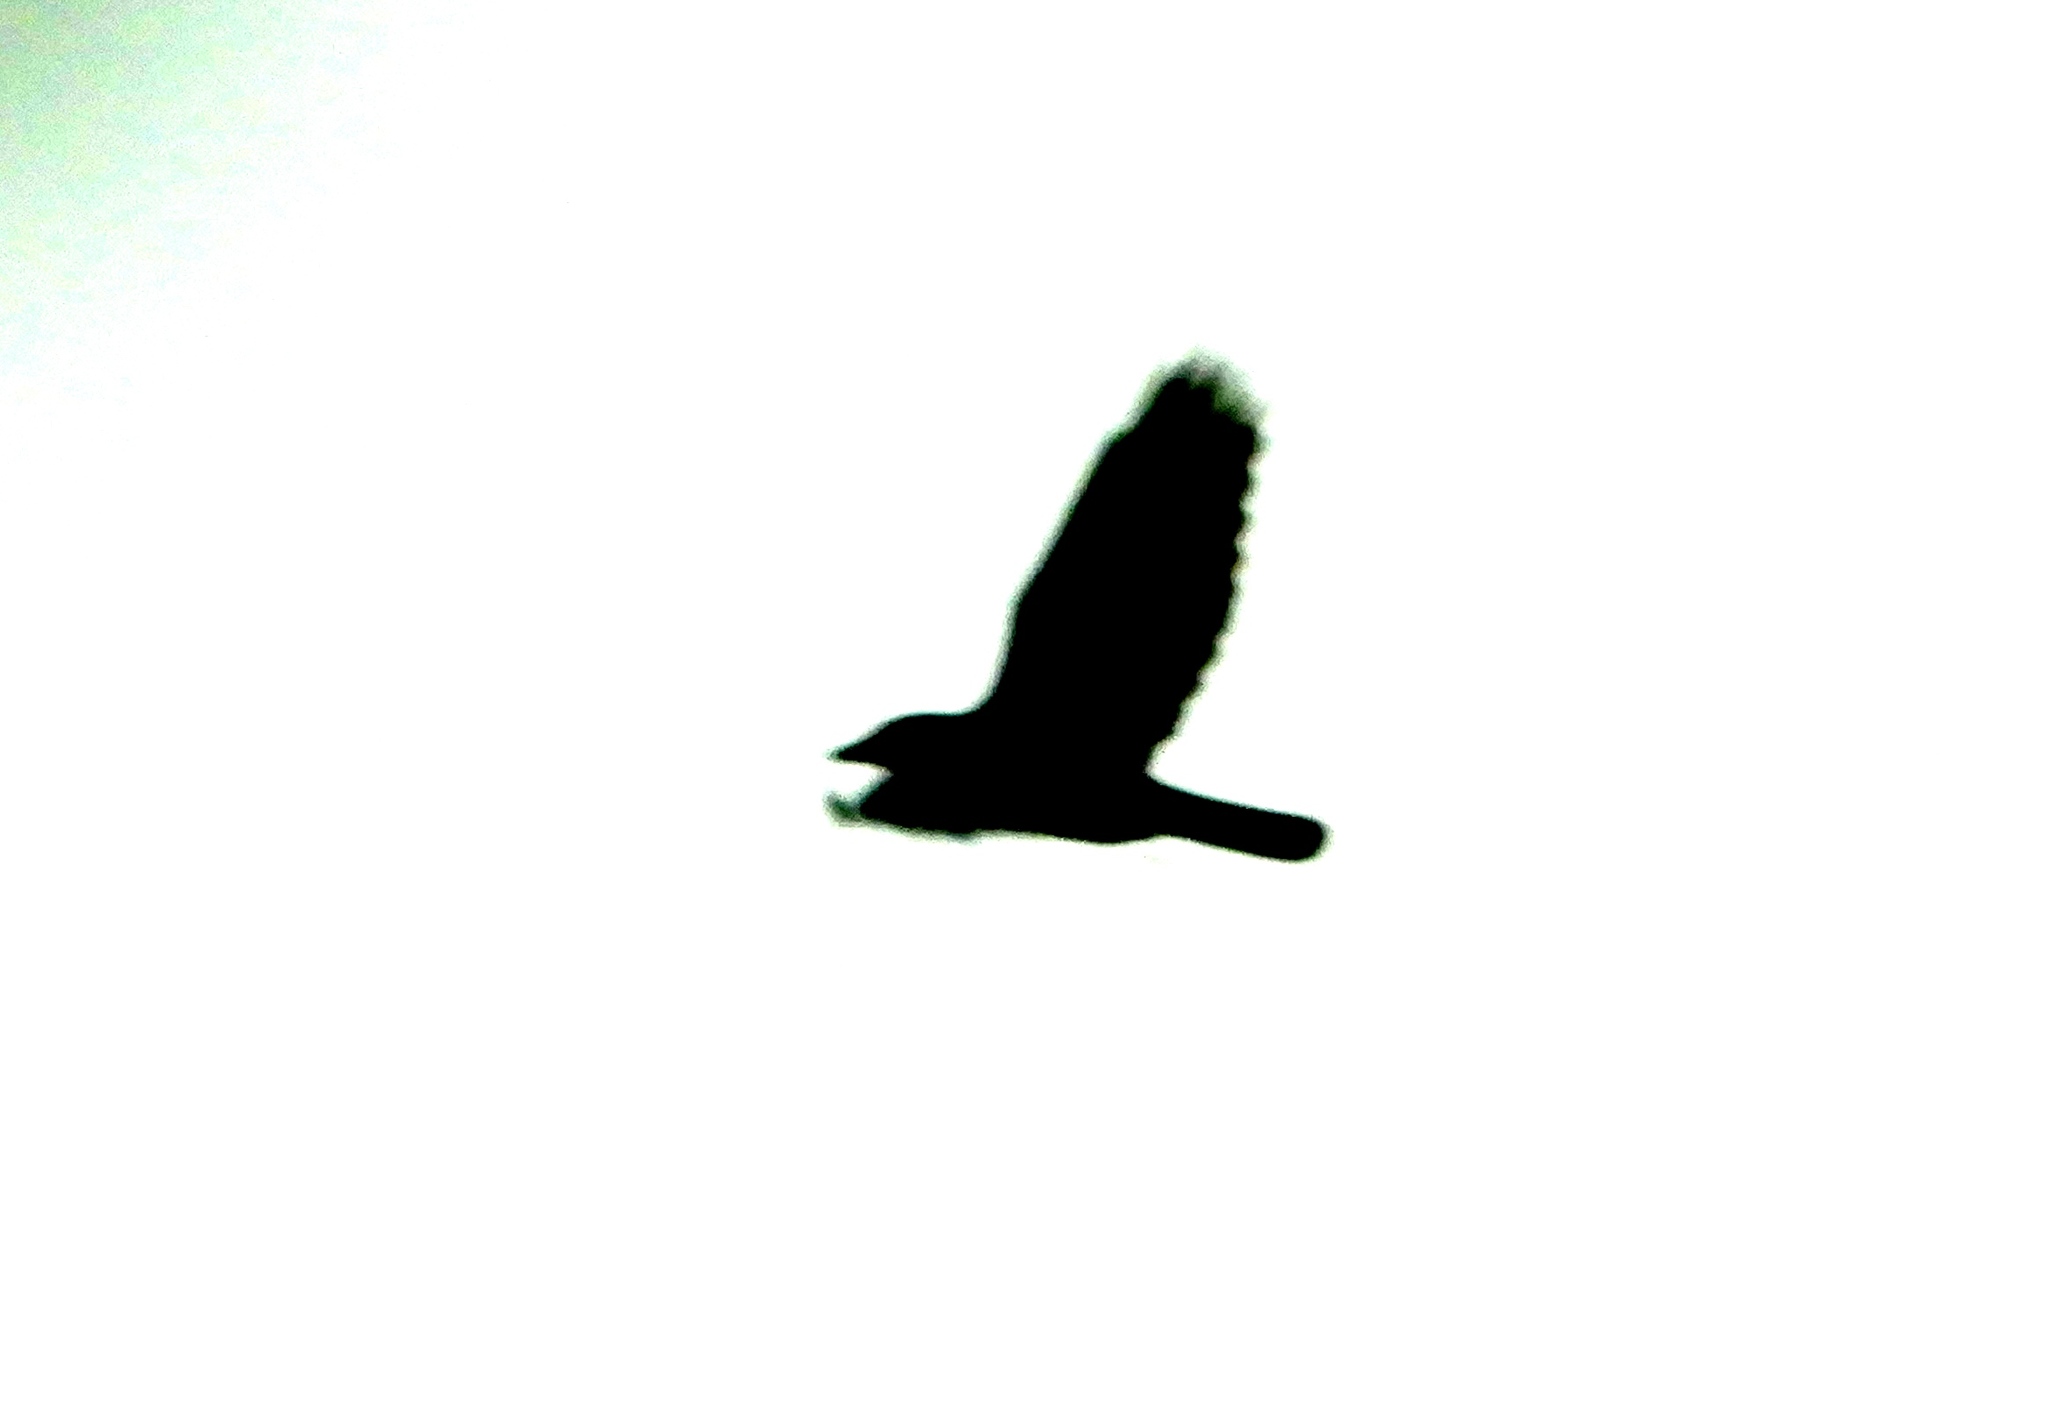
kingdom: Animalia
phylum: Chordata
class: Aves
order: Passeriformes
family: Corvidae
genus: Corvus
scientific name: Corvus sinaloae
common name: Sinaloa crow
